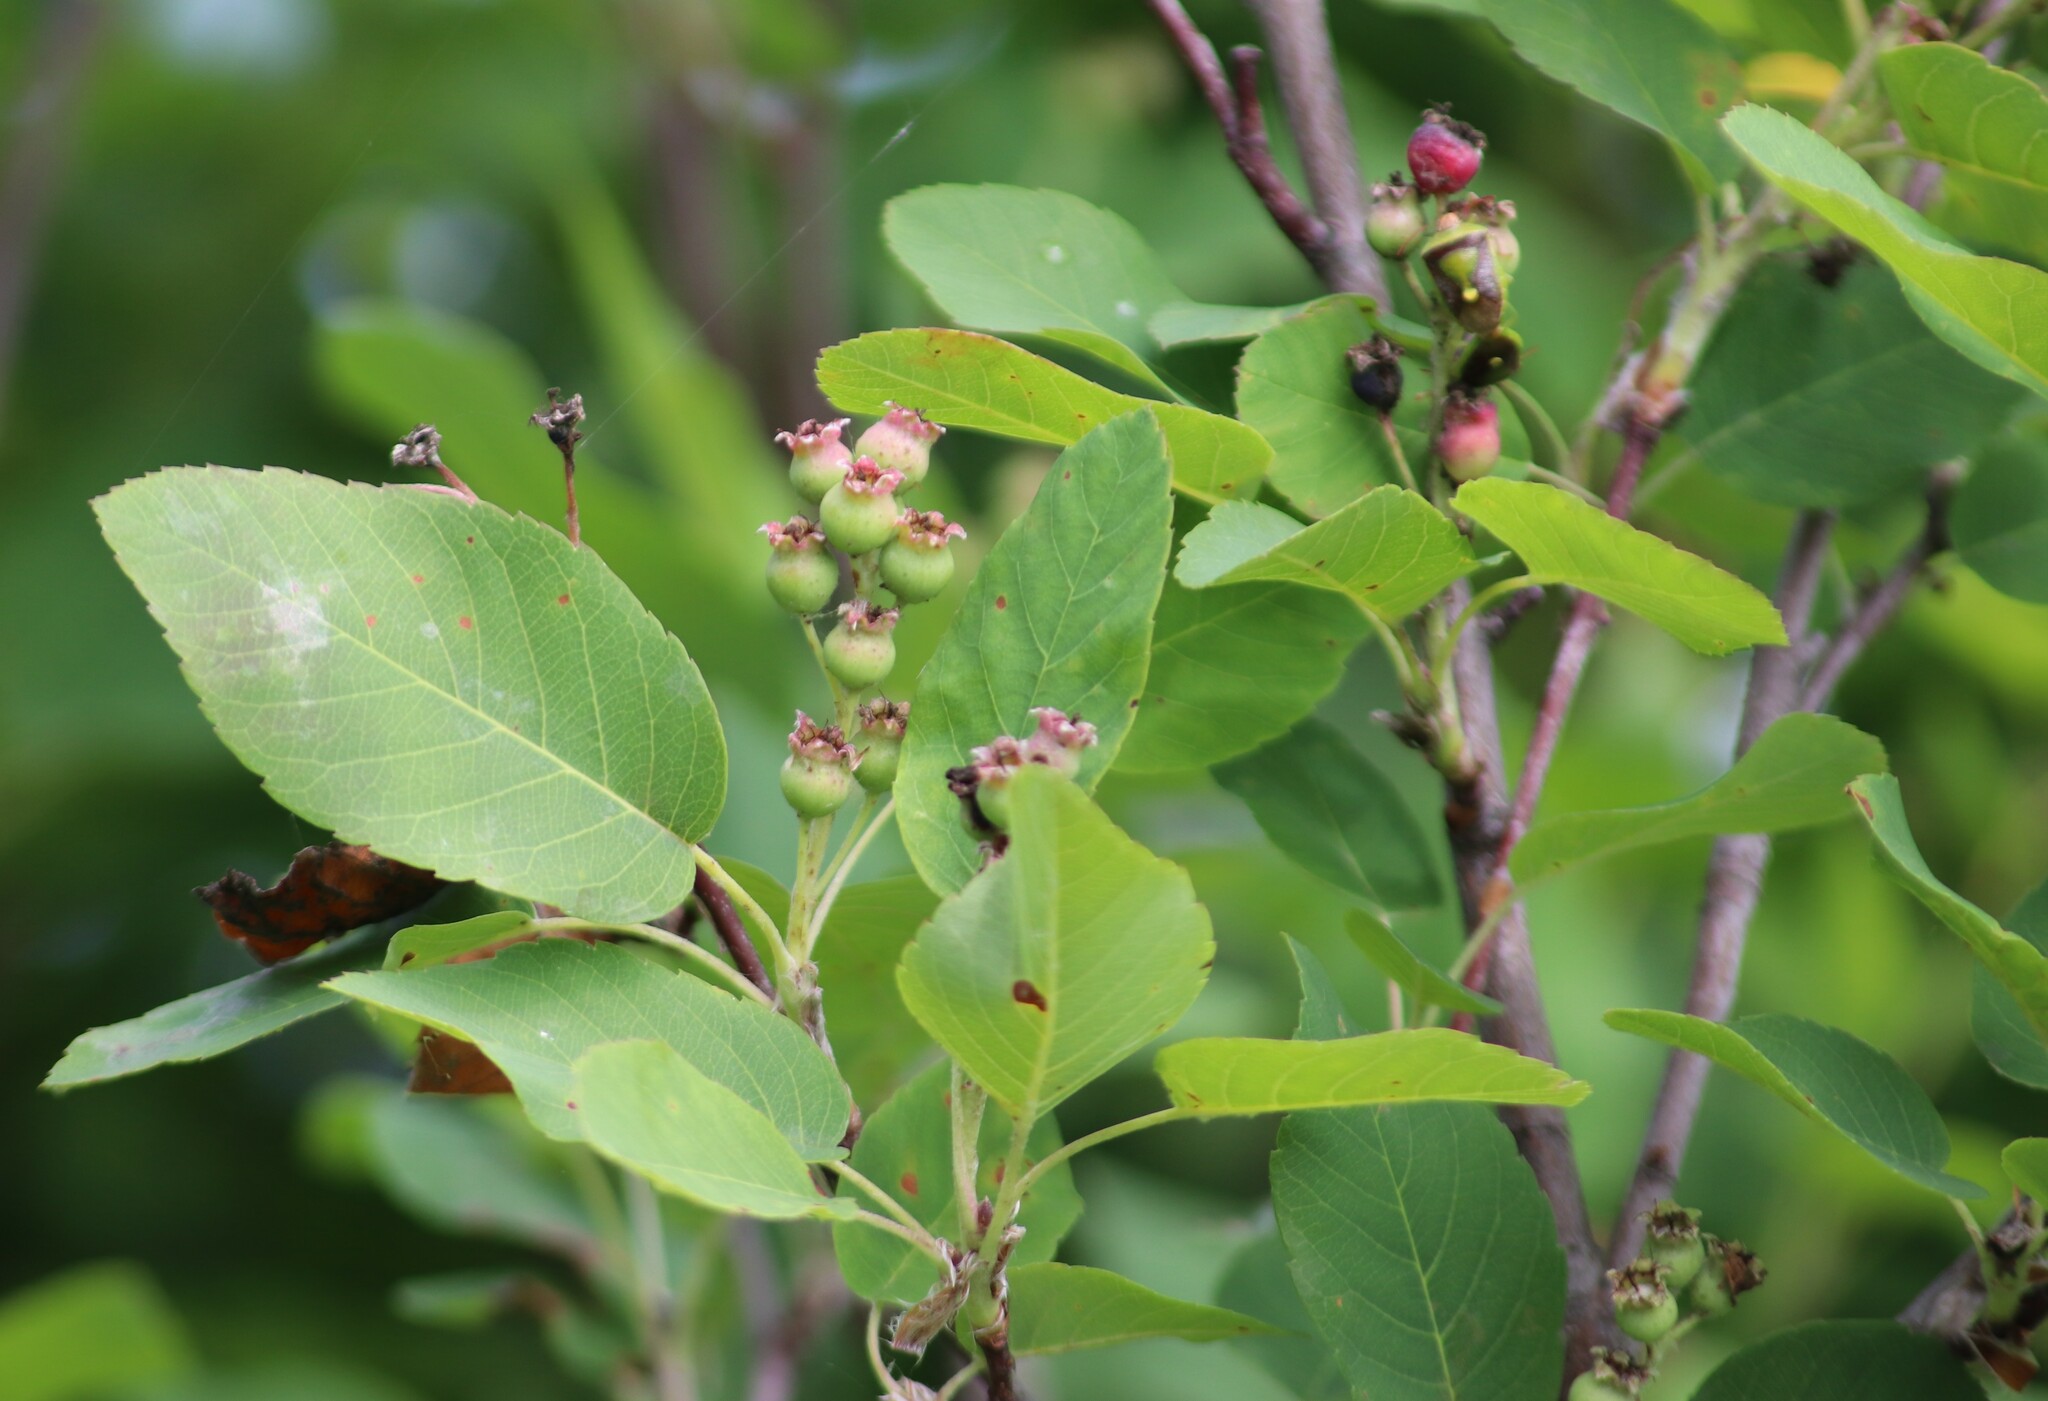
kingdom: Plantae
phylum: Tracheophyta
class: Magnoliopsida
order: Rosales
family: Rosaceae
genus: Amelanchier
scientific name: Amelanchier alnifolia
